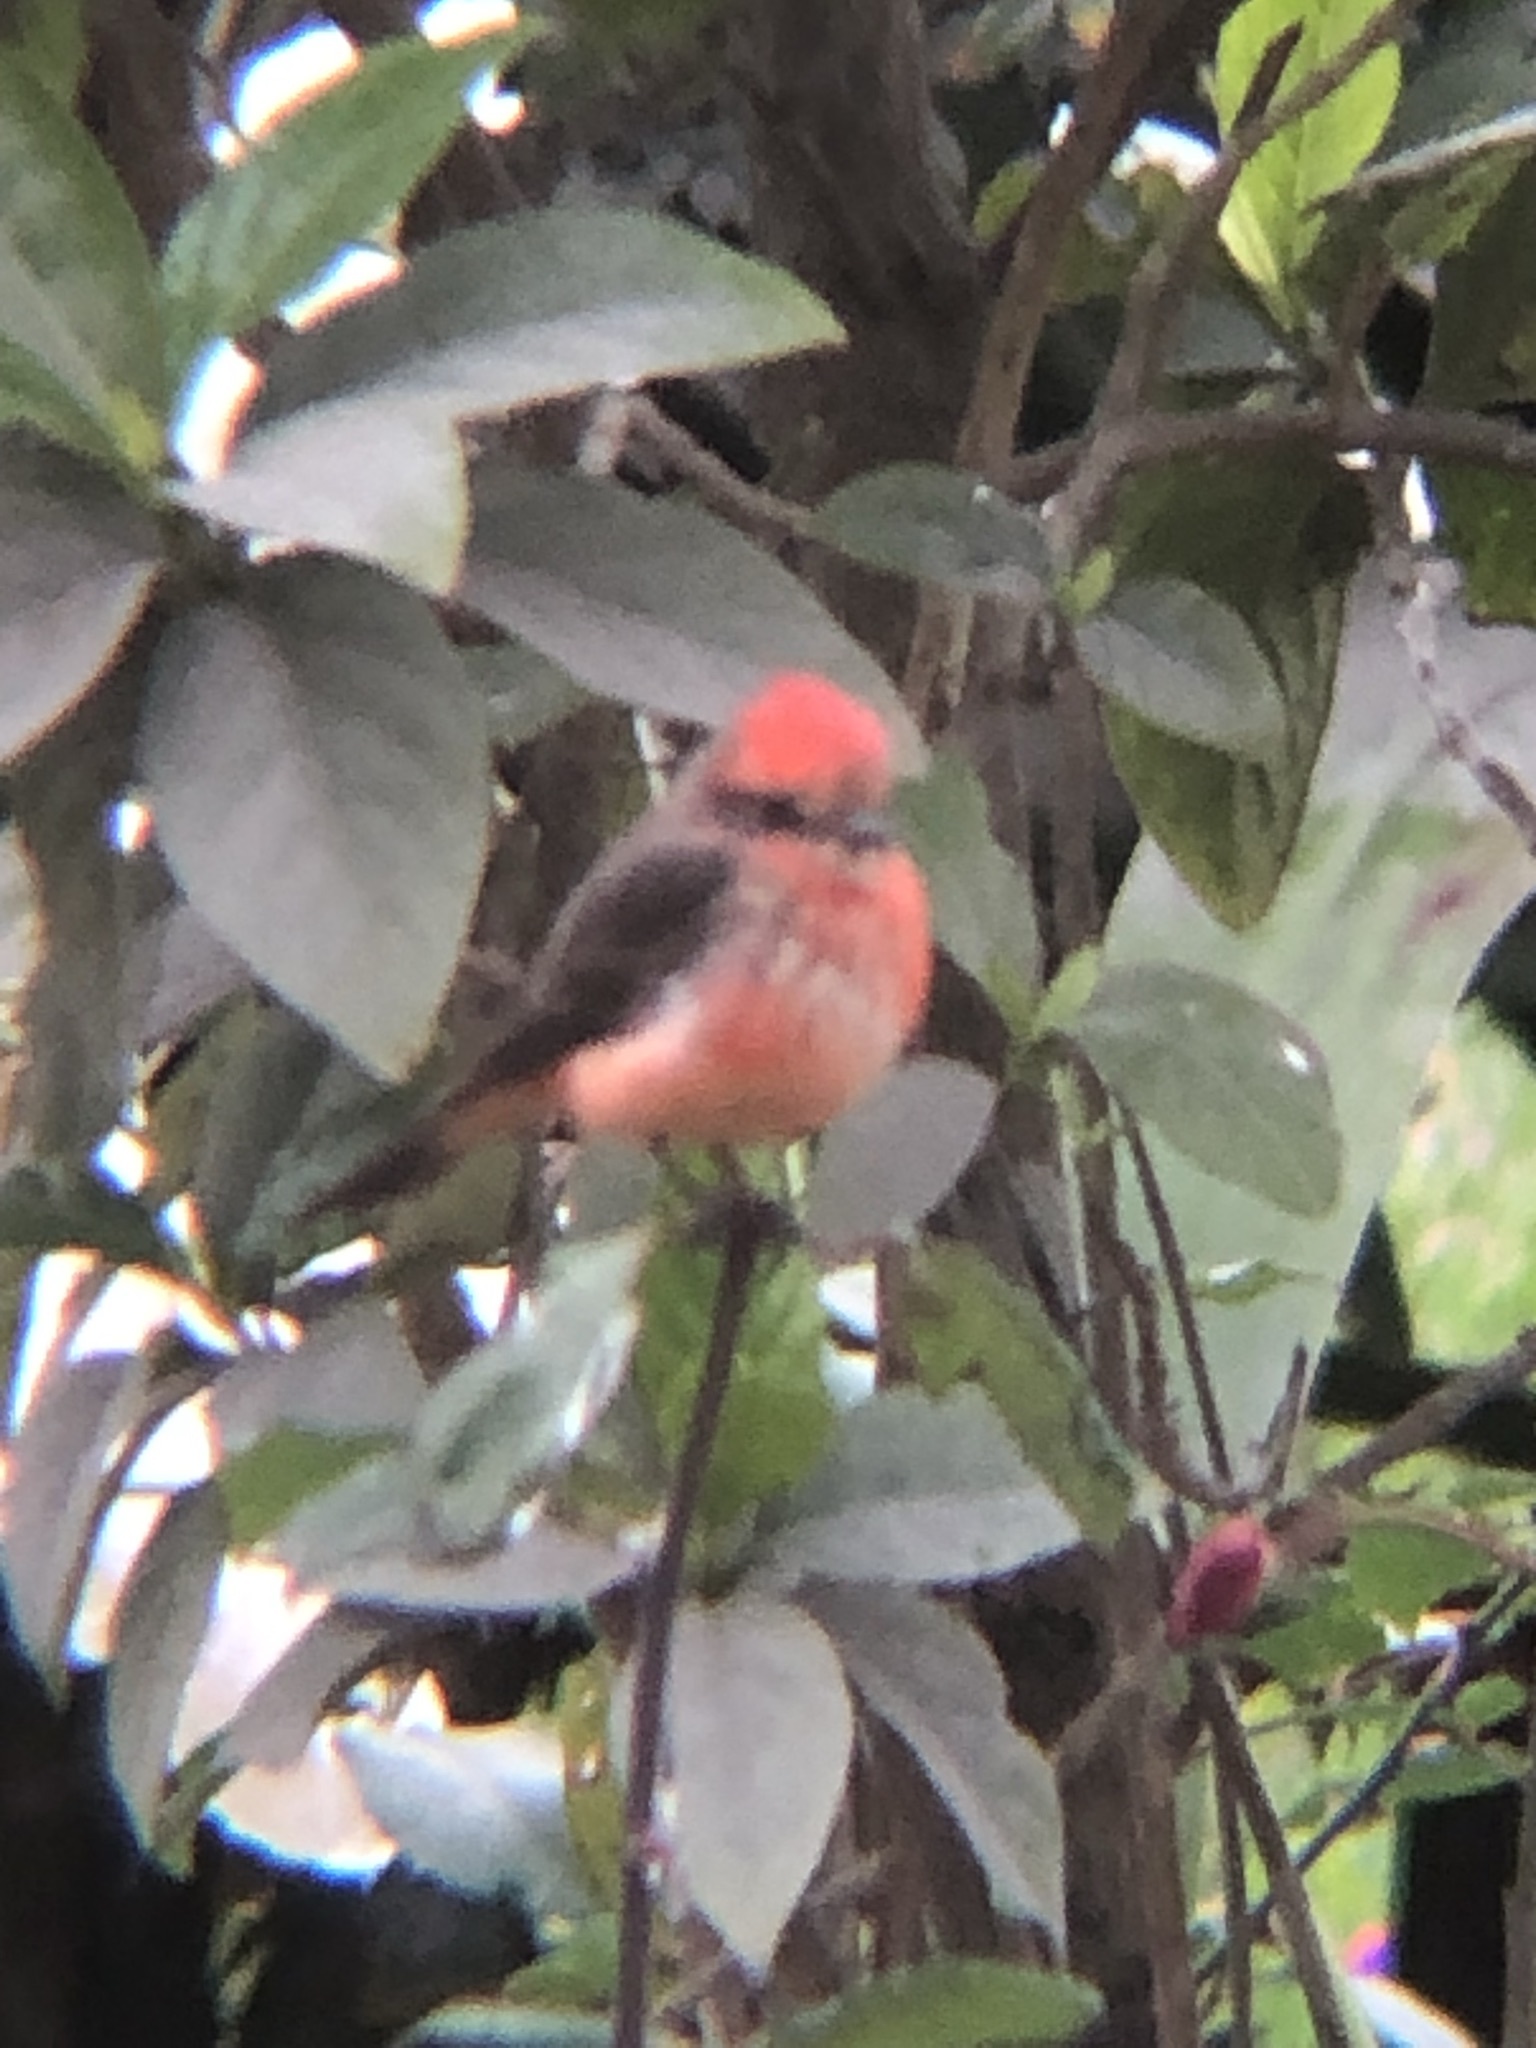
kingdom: Animalia
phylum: Chordata
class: Aves
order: Passeriformes
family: Tyrannidae
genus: Pyrocephalus
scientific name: Pyrocephalus rubinus
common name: Vermilion flycatcher
